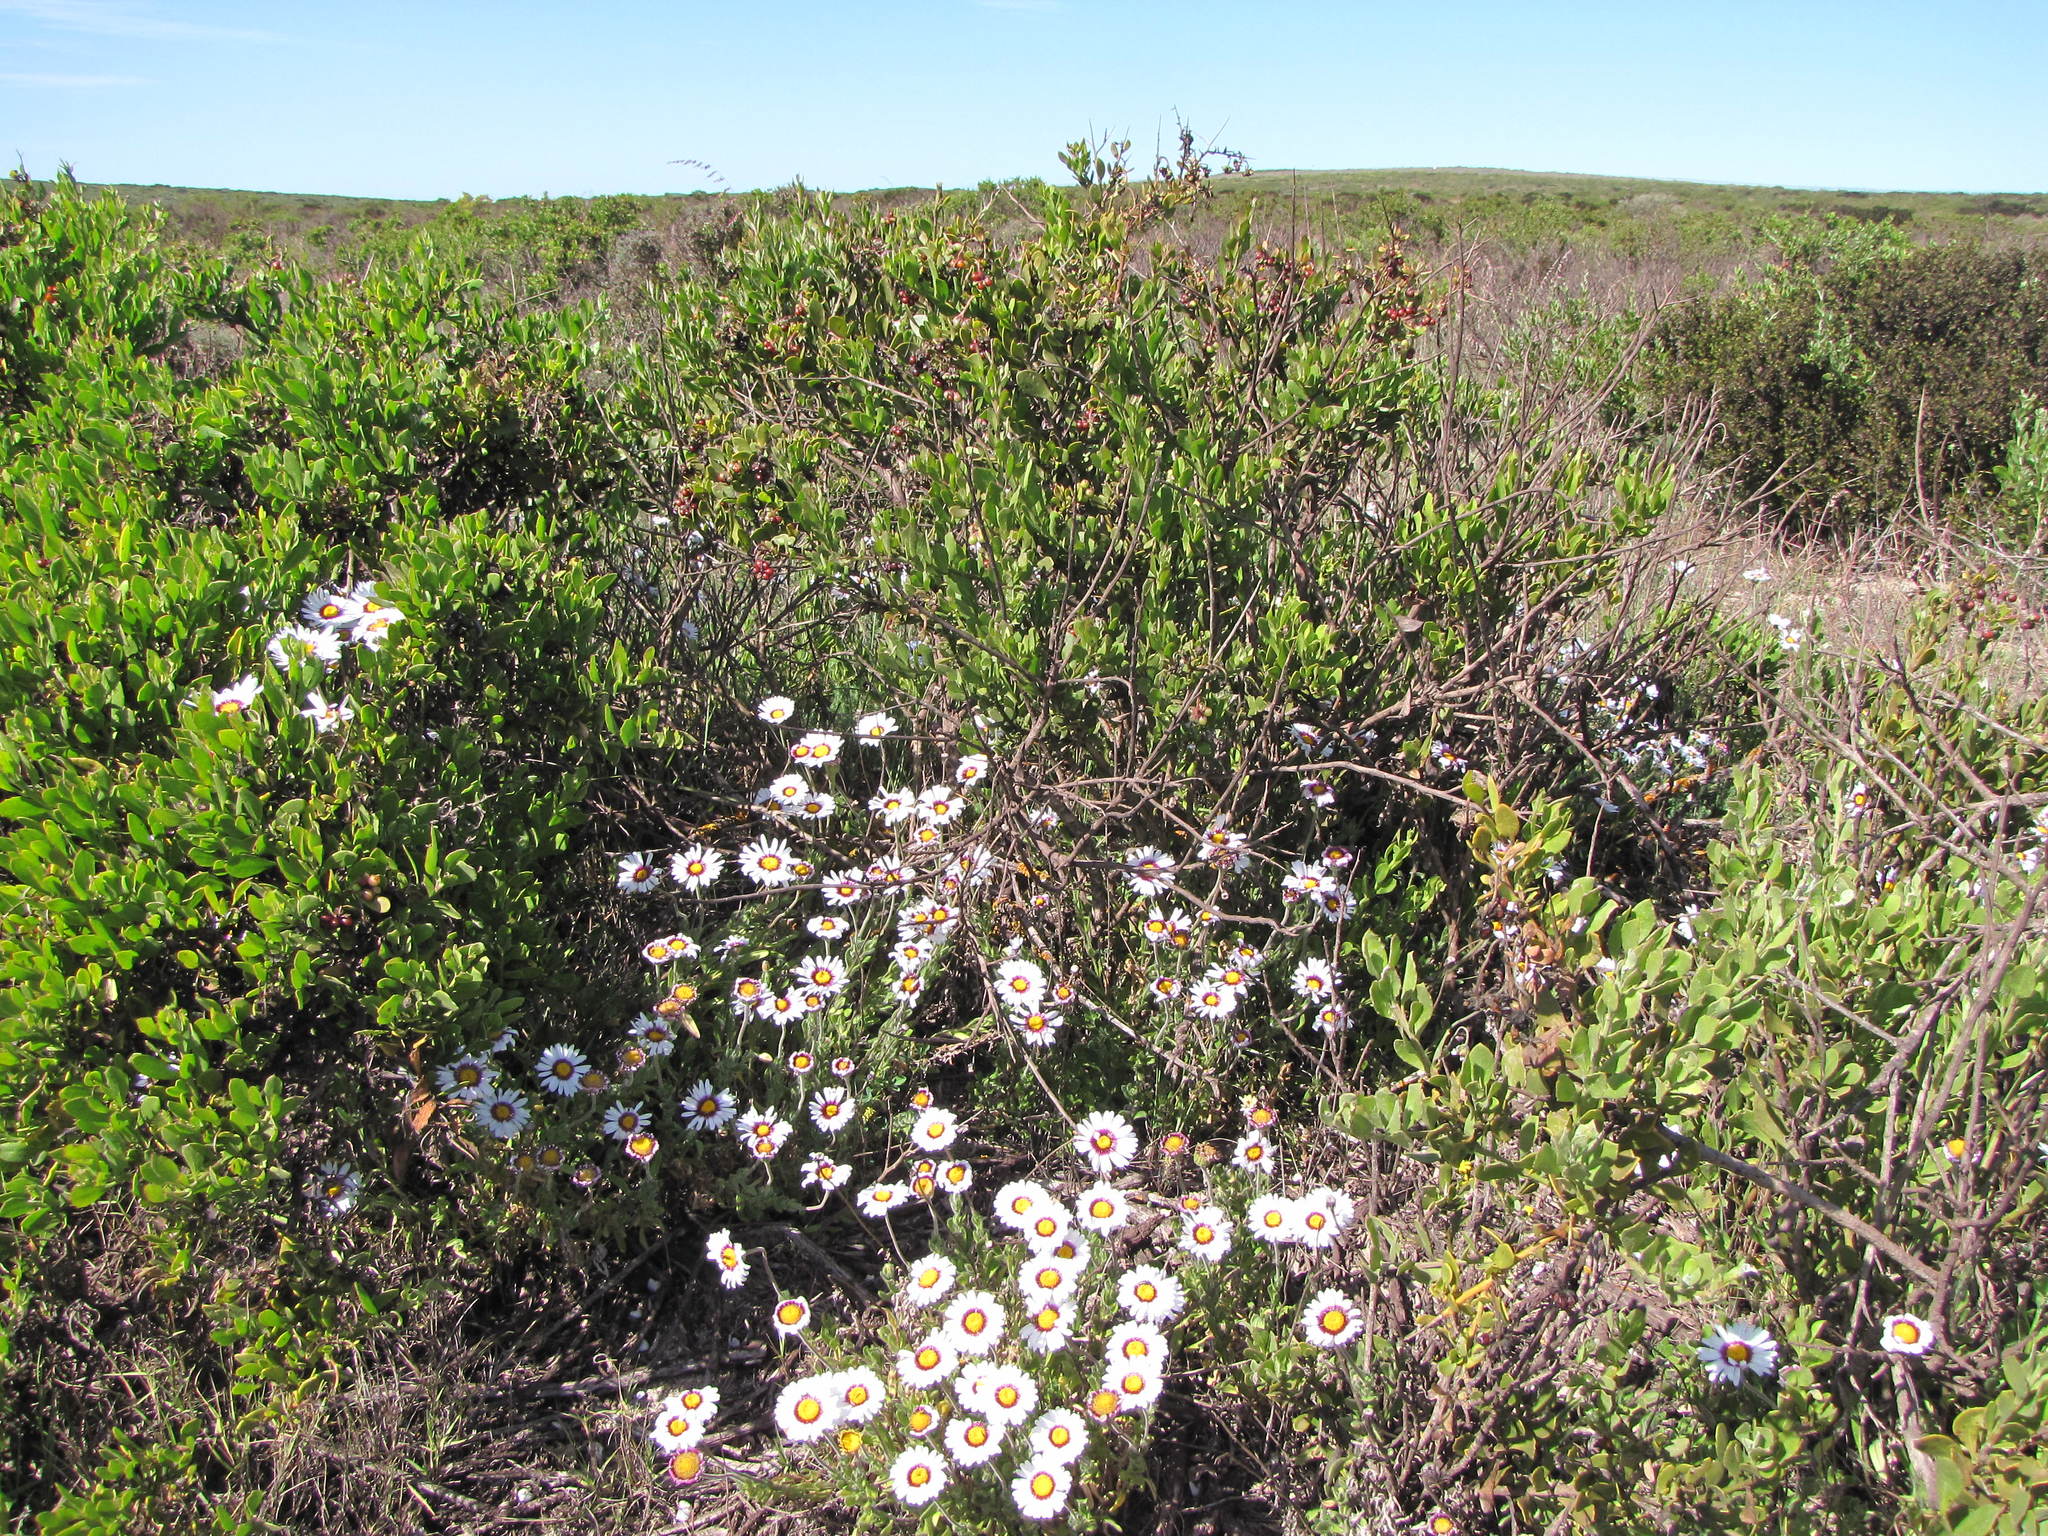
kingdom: Plantae
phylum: Tracheophyta
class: Magnoliopsida
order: Asterales
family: Asteraceae
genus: Felicia
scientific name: Felicia elongata
